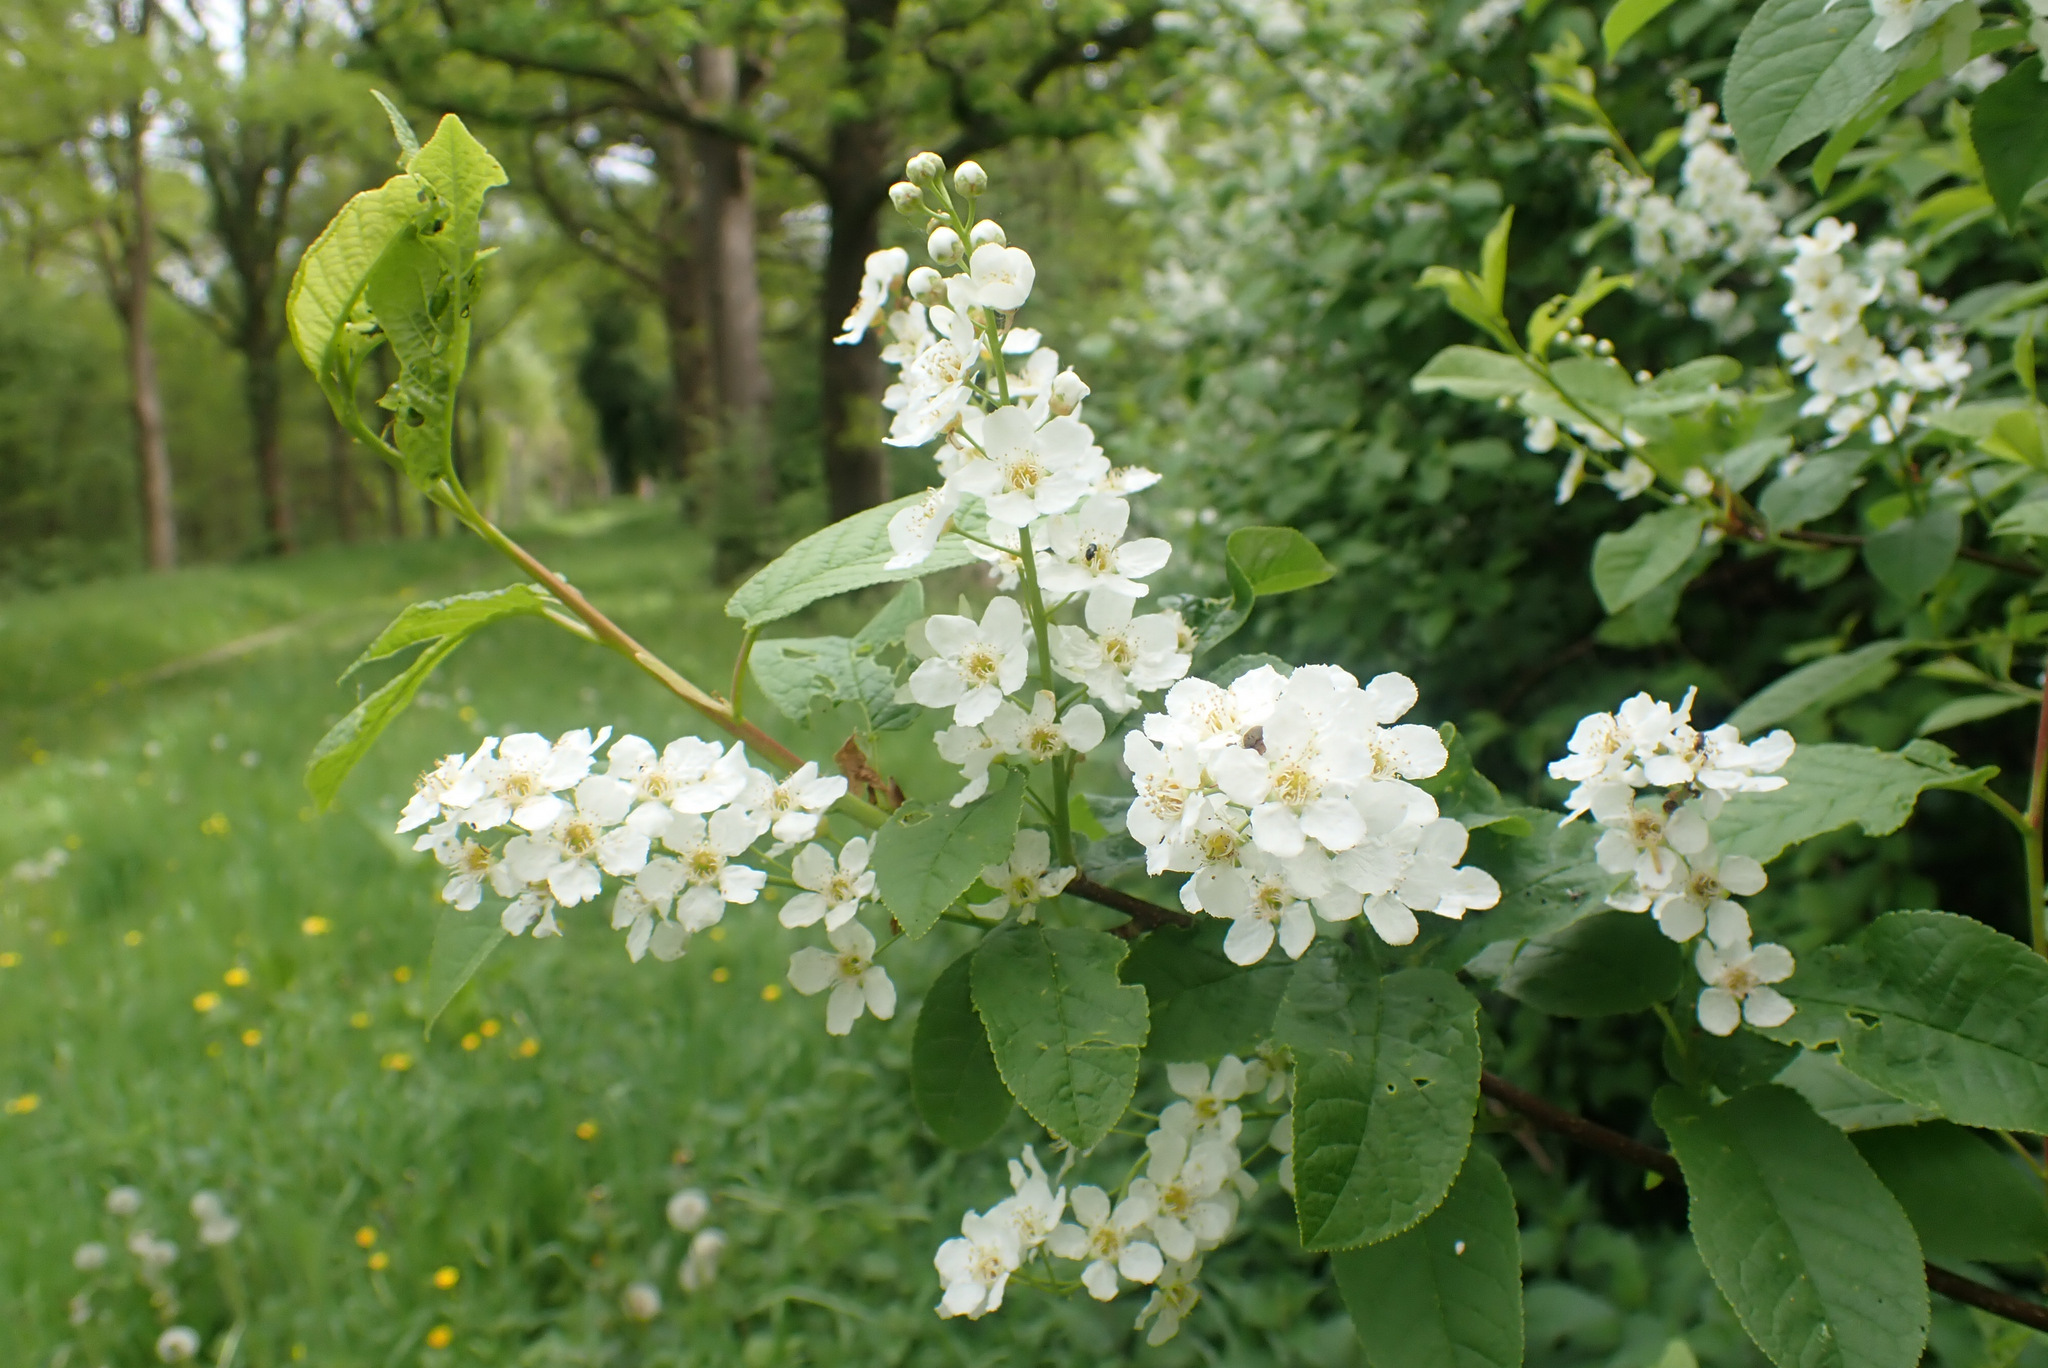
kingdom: Plantae
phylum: Tracheophyta
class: Magnoliopsida
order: Rosales
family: Rosaceae
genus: Prunus
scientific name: Prunus padus
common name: Bird cherry
